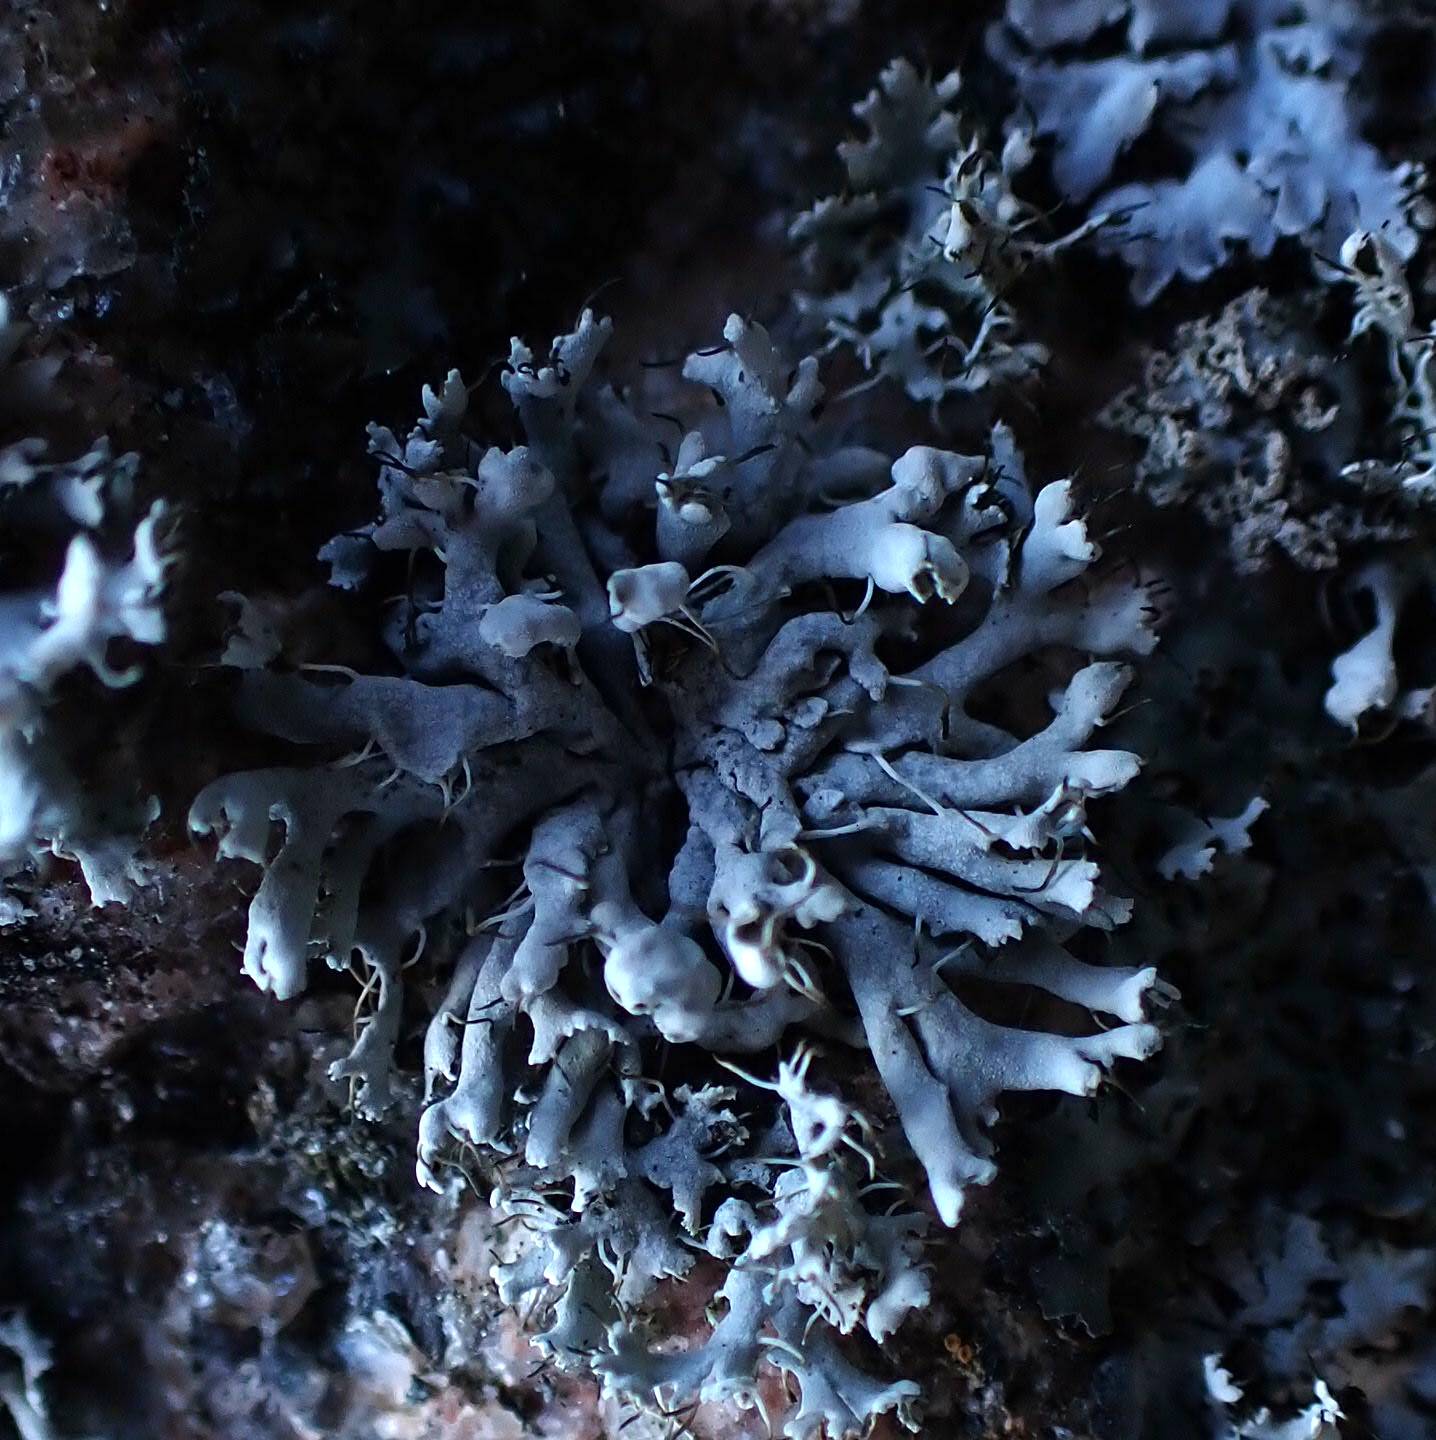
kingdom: Fungi
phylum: Ascomycota
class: Lecanoromycetes
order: Caliciales
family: Physciaceae
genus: Physcia
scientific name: Physcia adscendens
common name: Hooded rosette lichen
